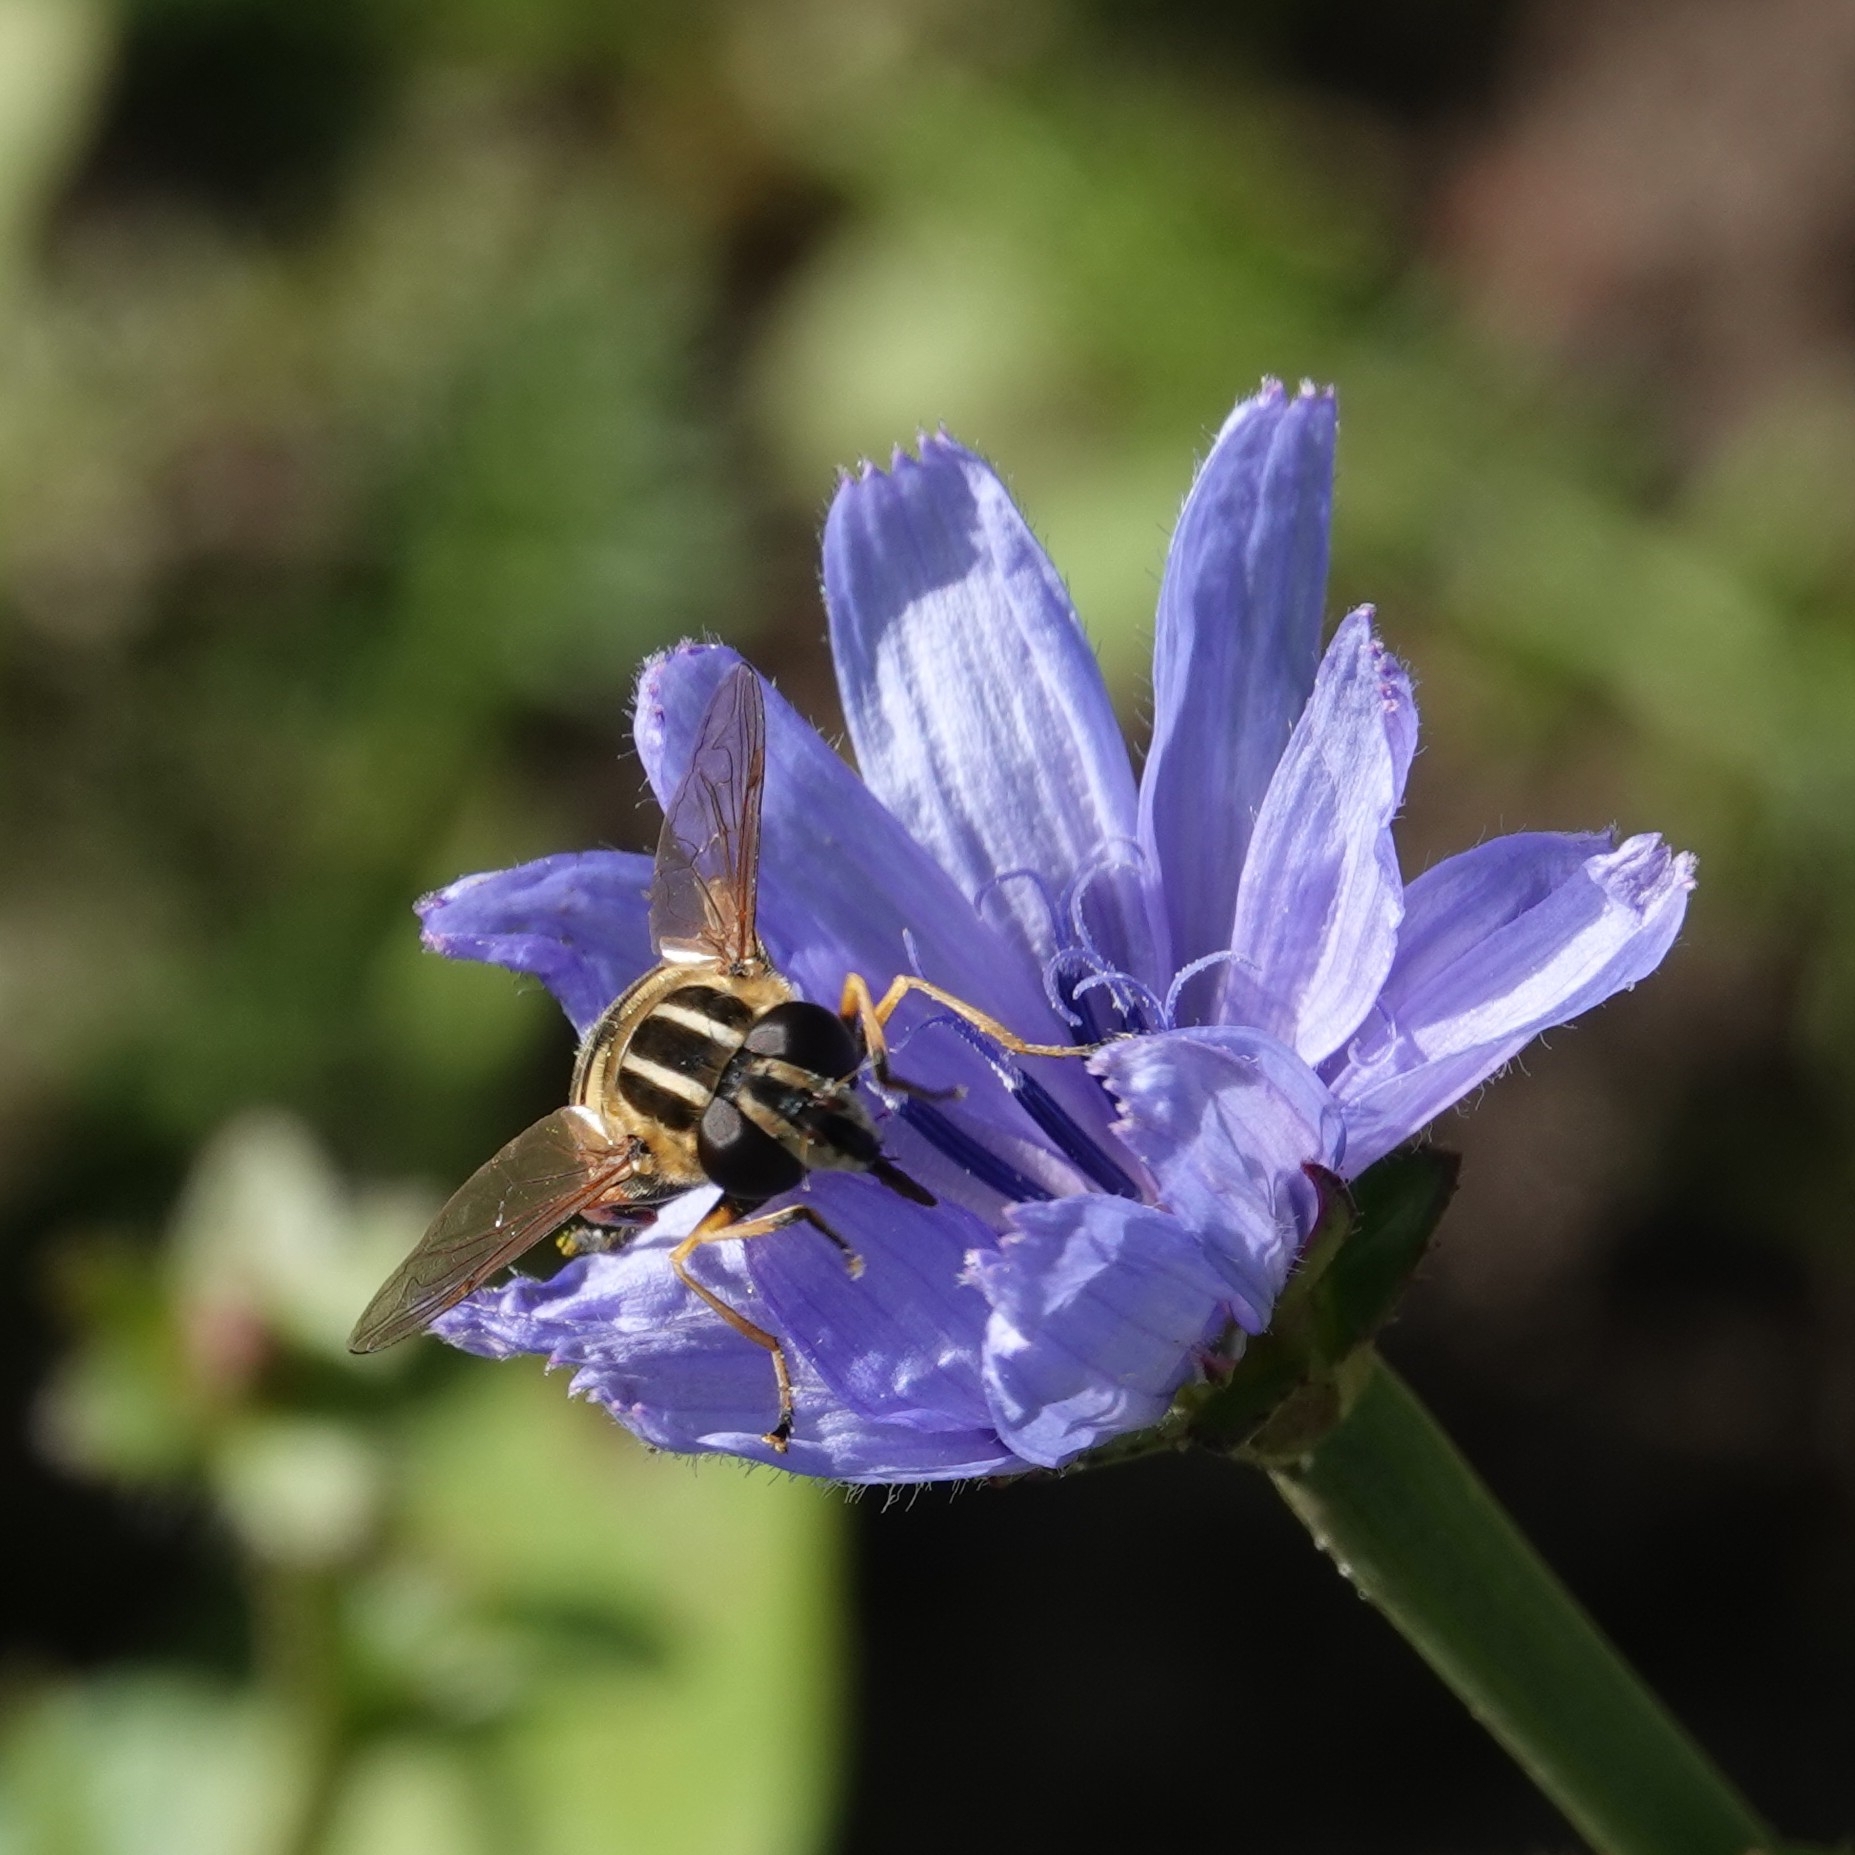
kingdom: Animalia
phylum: Arthropoda
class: Insecta
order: Diptera
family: Syrphidae
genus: Helophilus
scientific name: Helophilus pendulus
